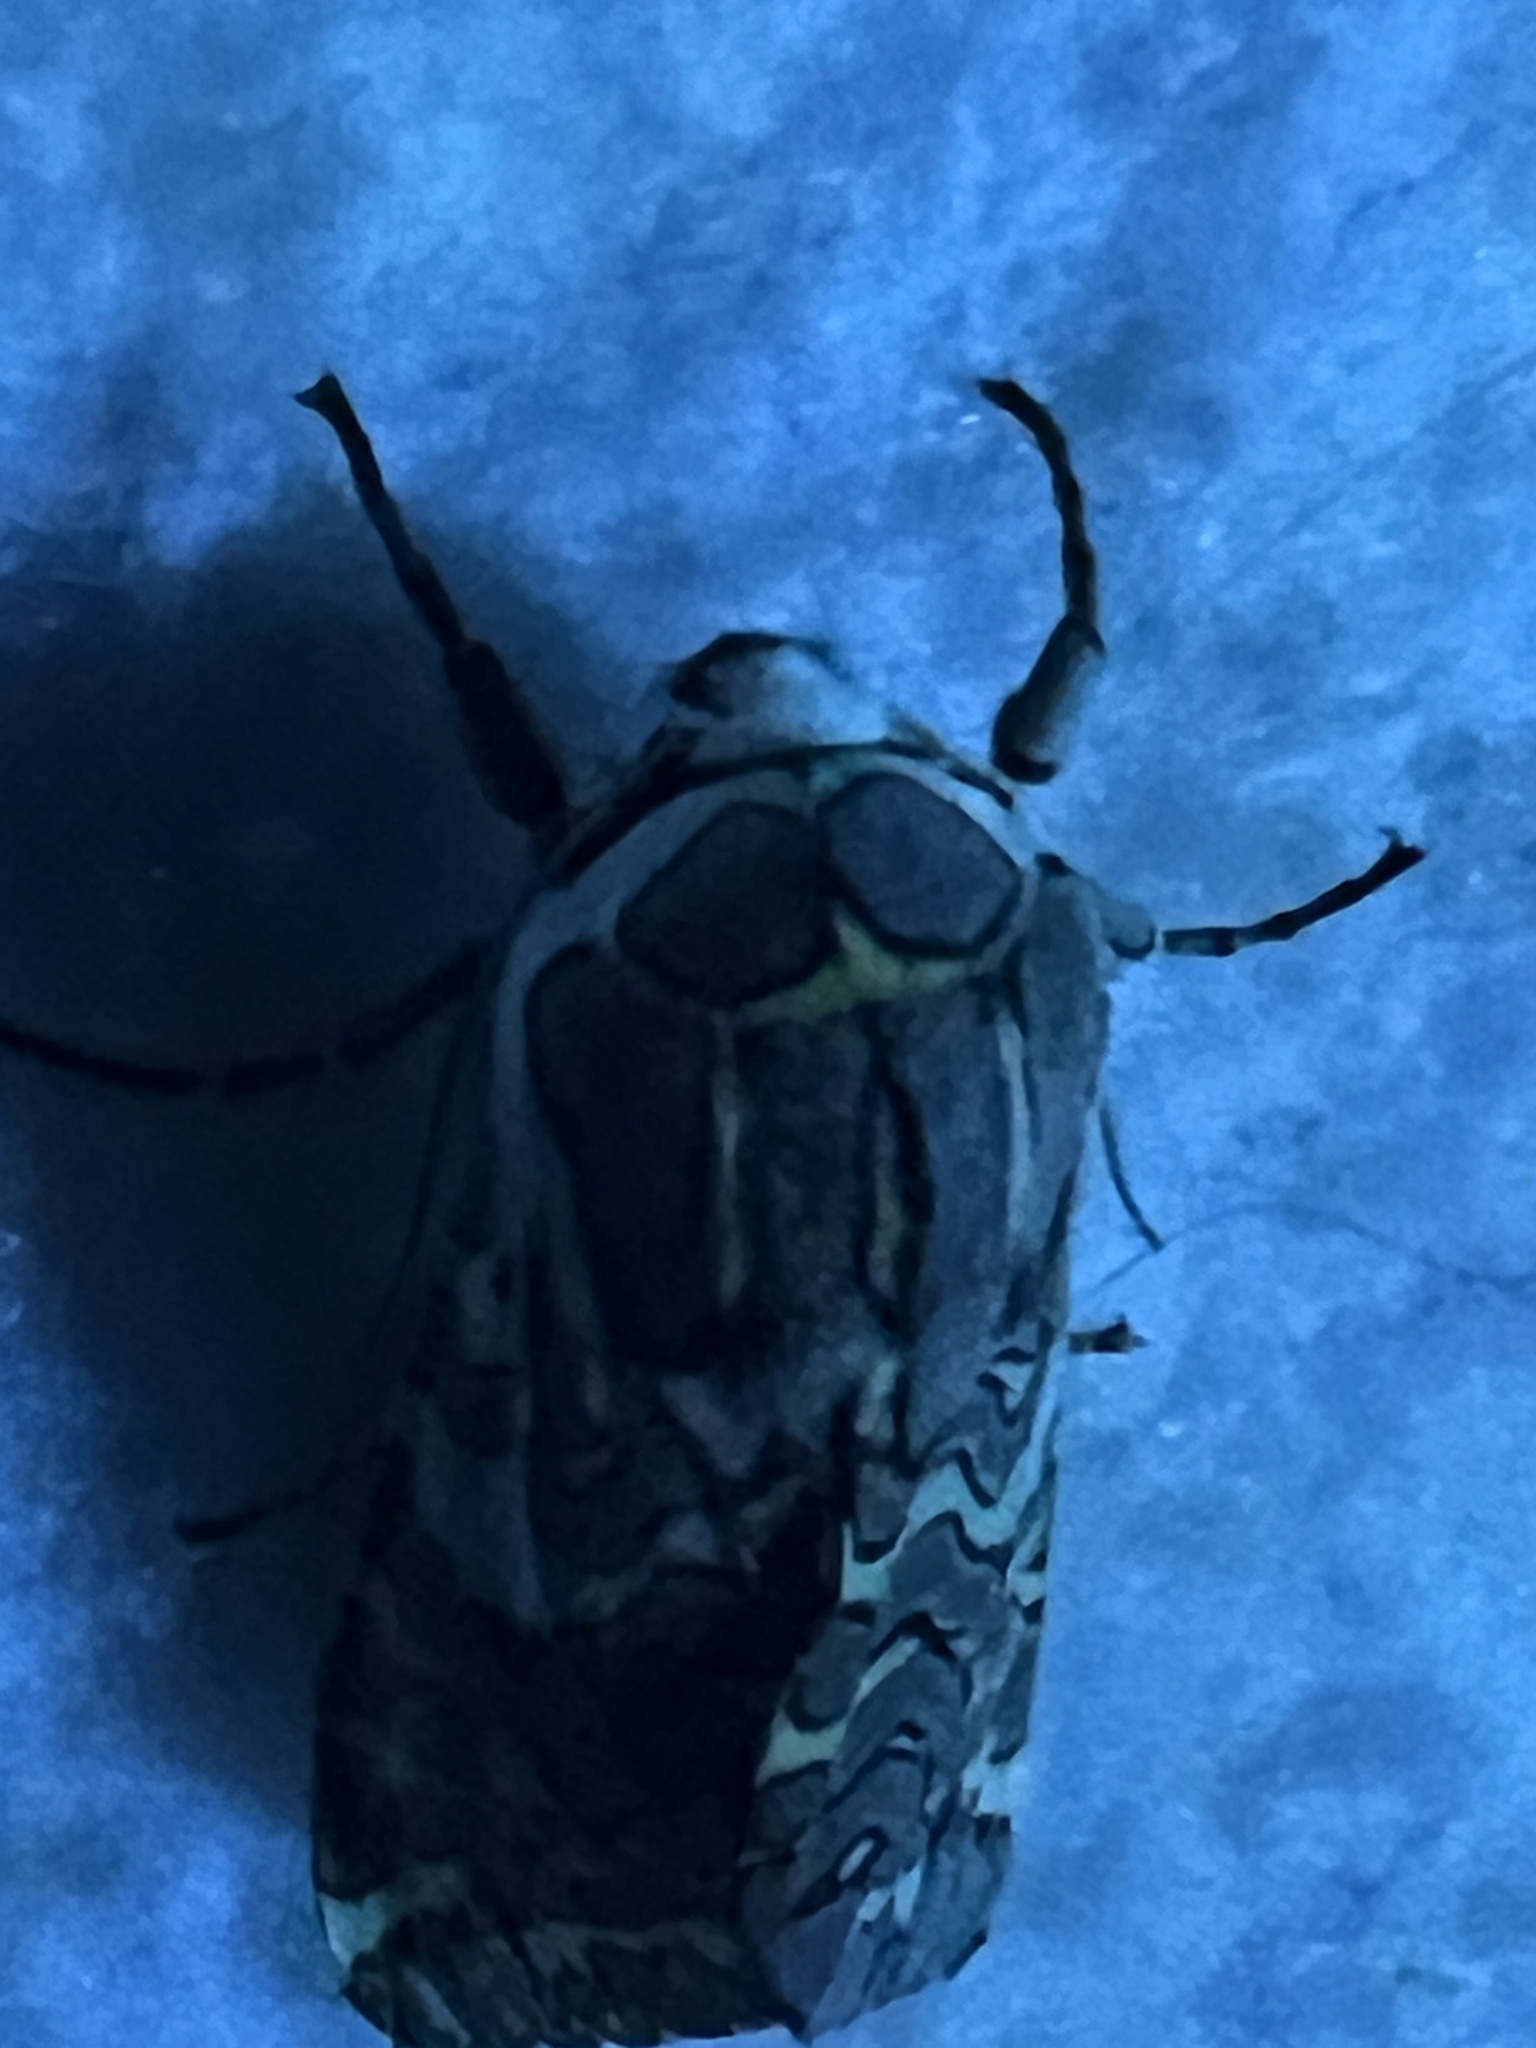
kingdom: Animalia
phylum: Arthropoda
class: Insecta
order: Lepidoptera
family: Erebidae
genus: Arachnis
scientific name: Arachnis picta
